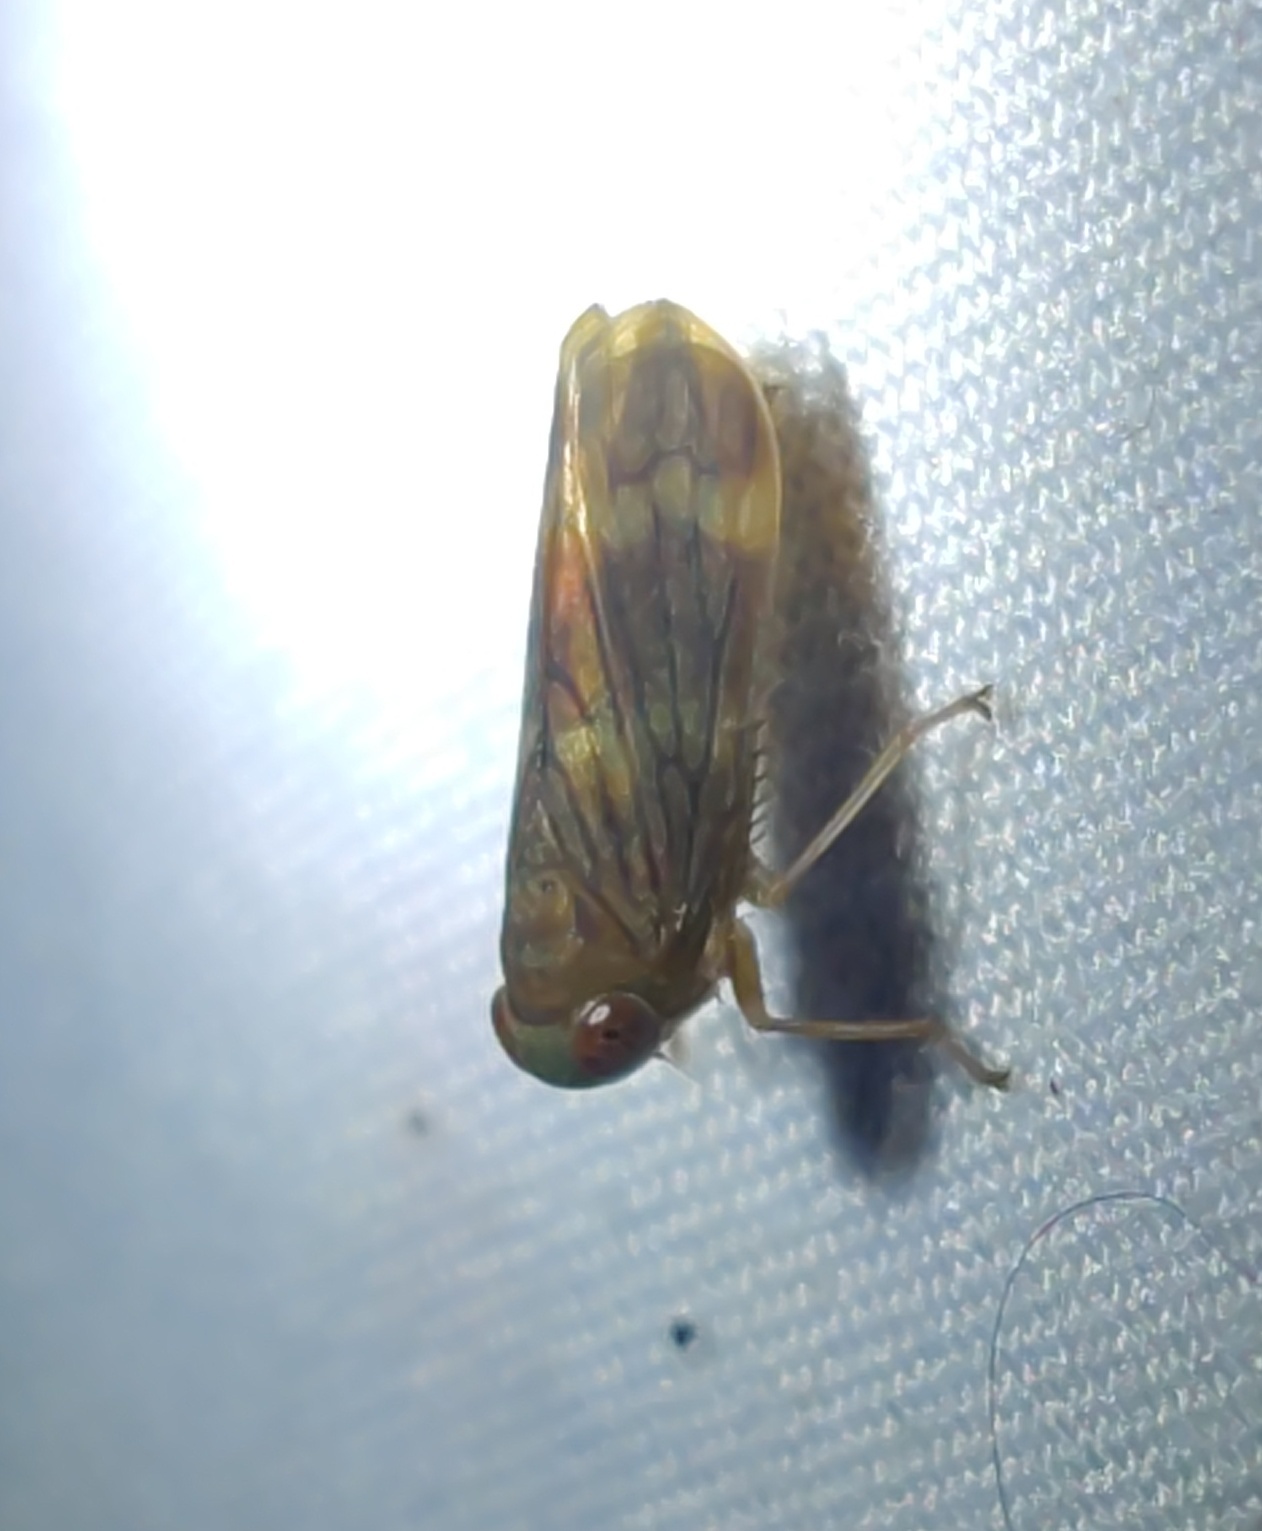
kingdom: Animalia
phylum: Arthropoda
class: Insecta
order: Hemiptera
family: Cicadellidae
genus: Jikradia
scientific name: Jikradia olitoria
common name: Coppery leafhopper
